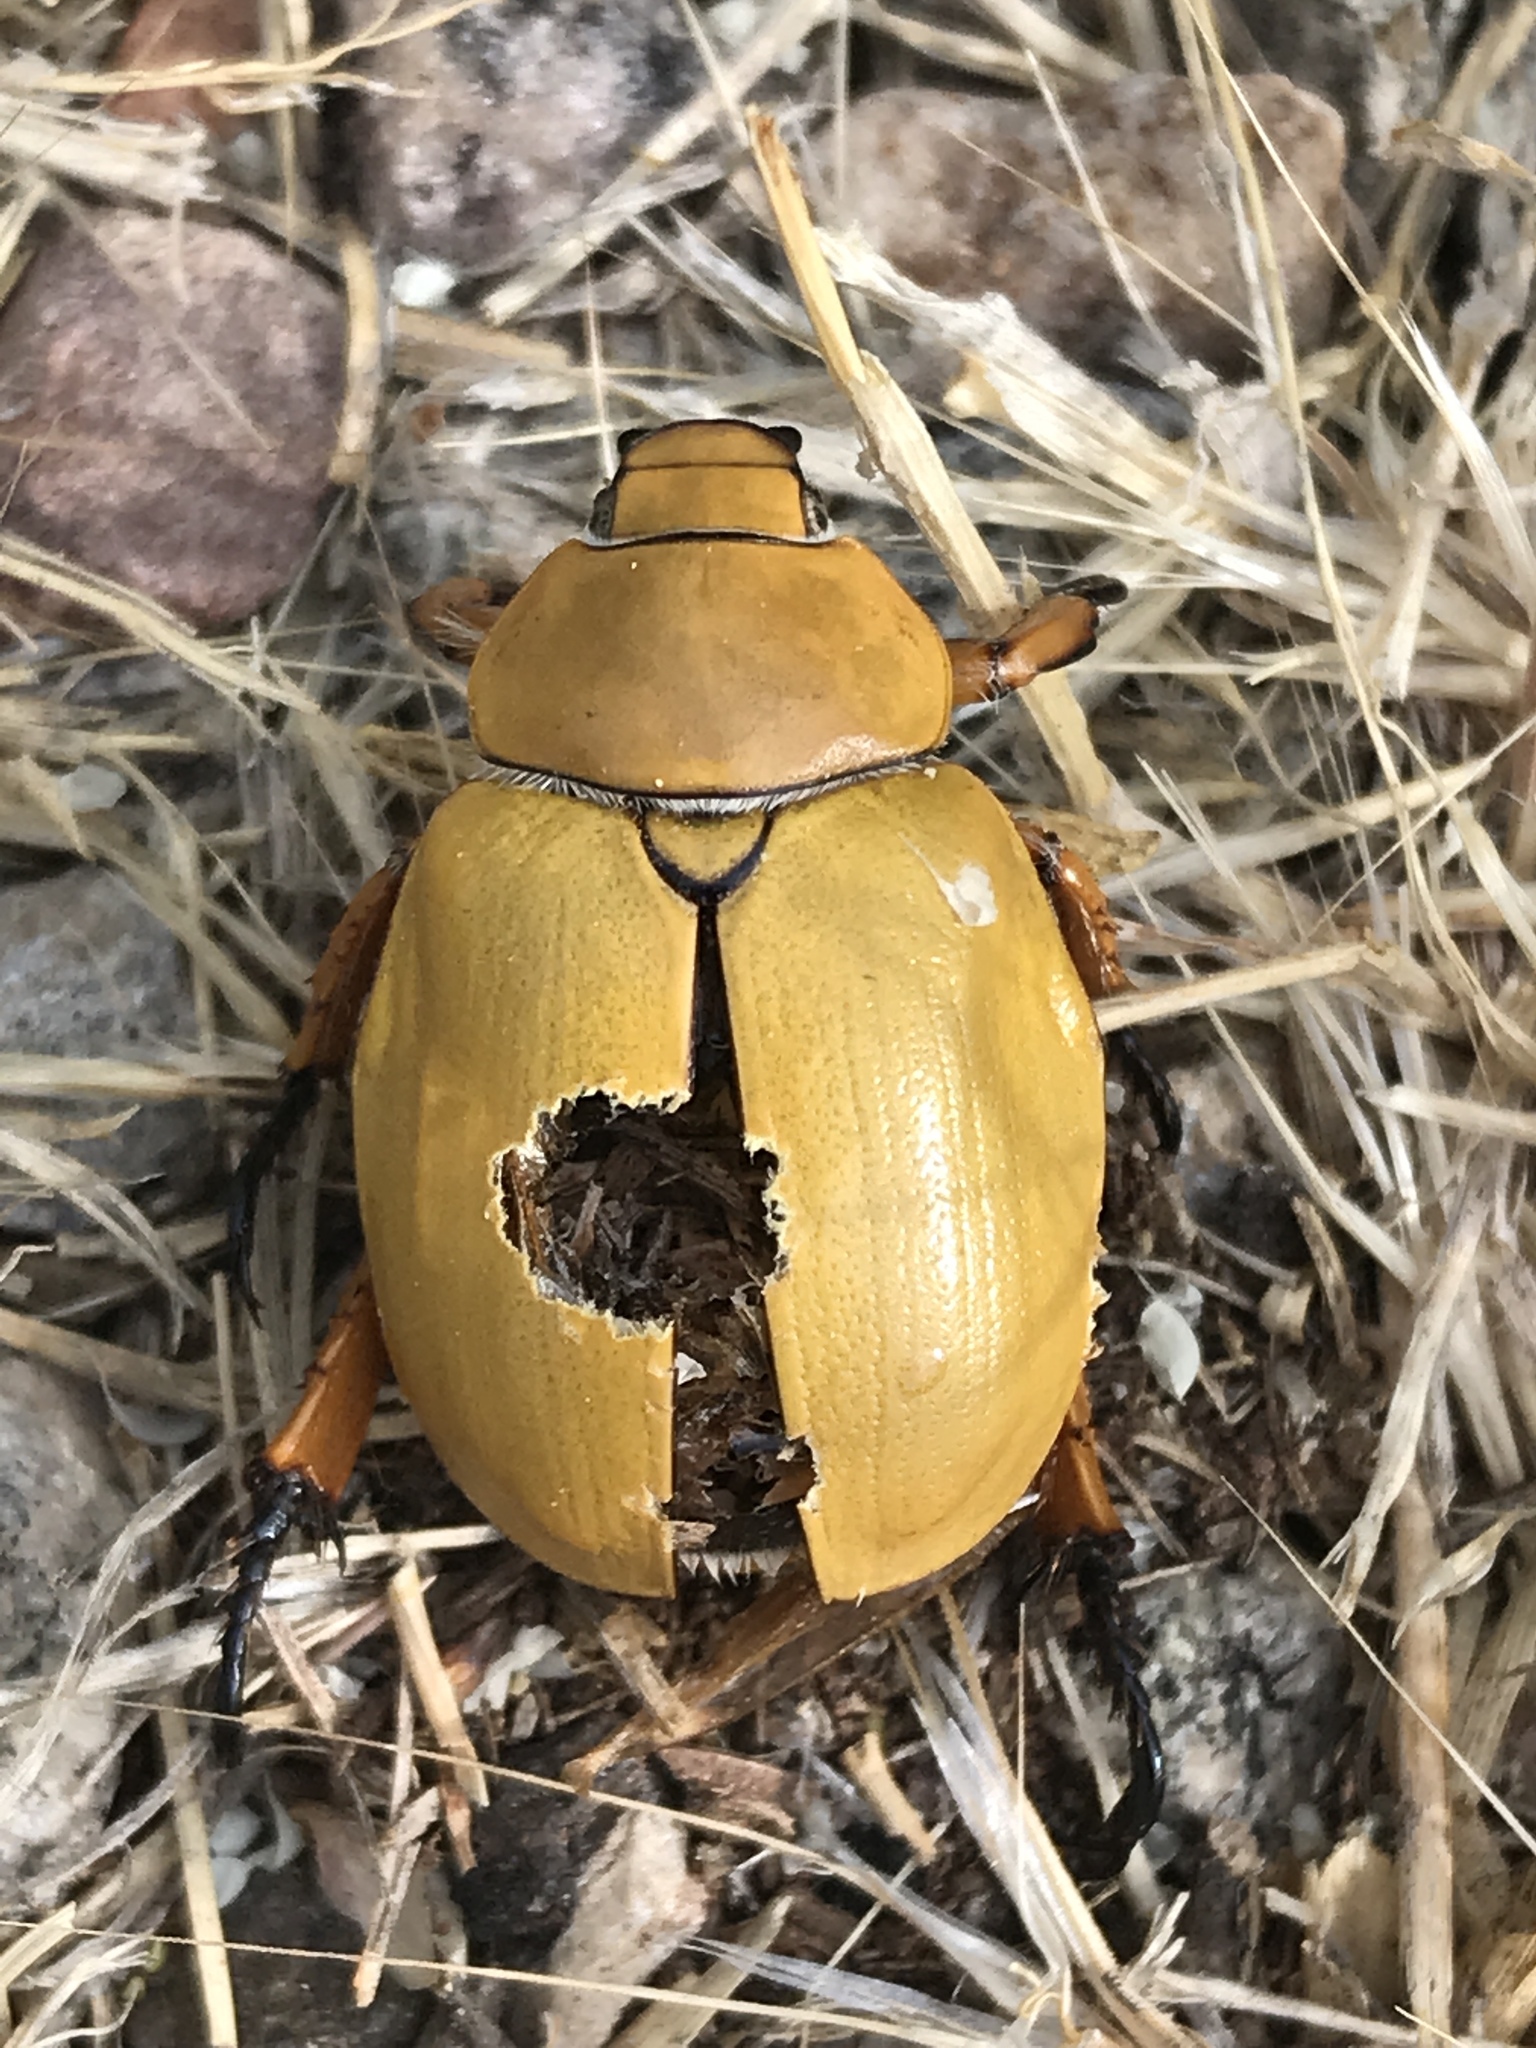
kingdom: Animalia
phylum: Arthropoda
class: Insecta
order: Coleoptera
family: Scarabaeidae
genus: Cotalpa
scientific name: Cotalpa flavida
